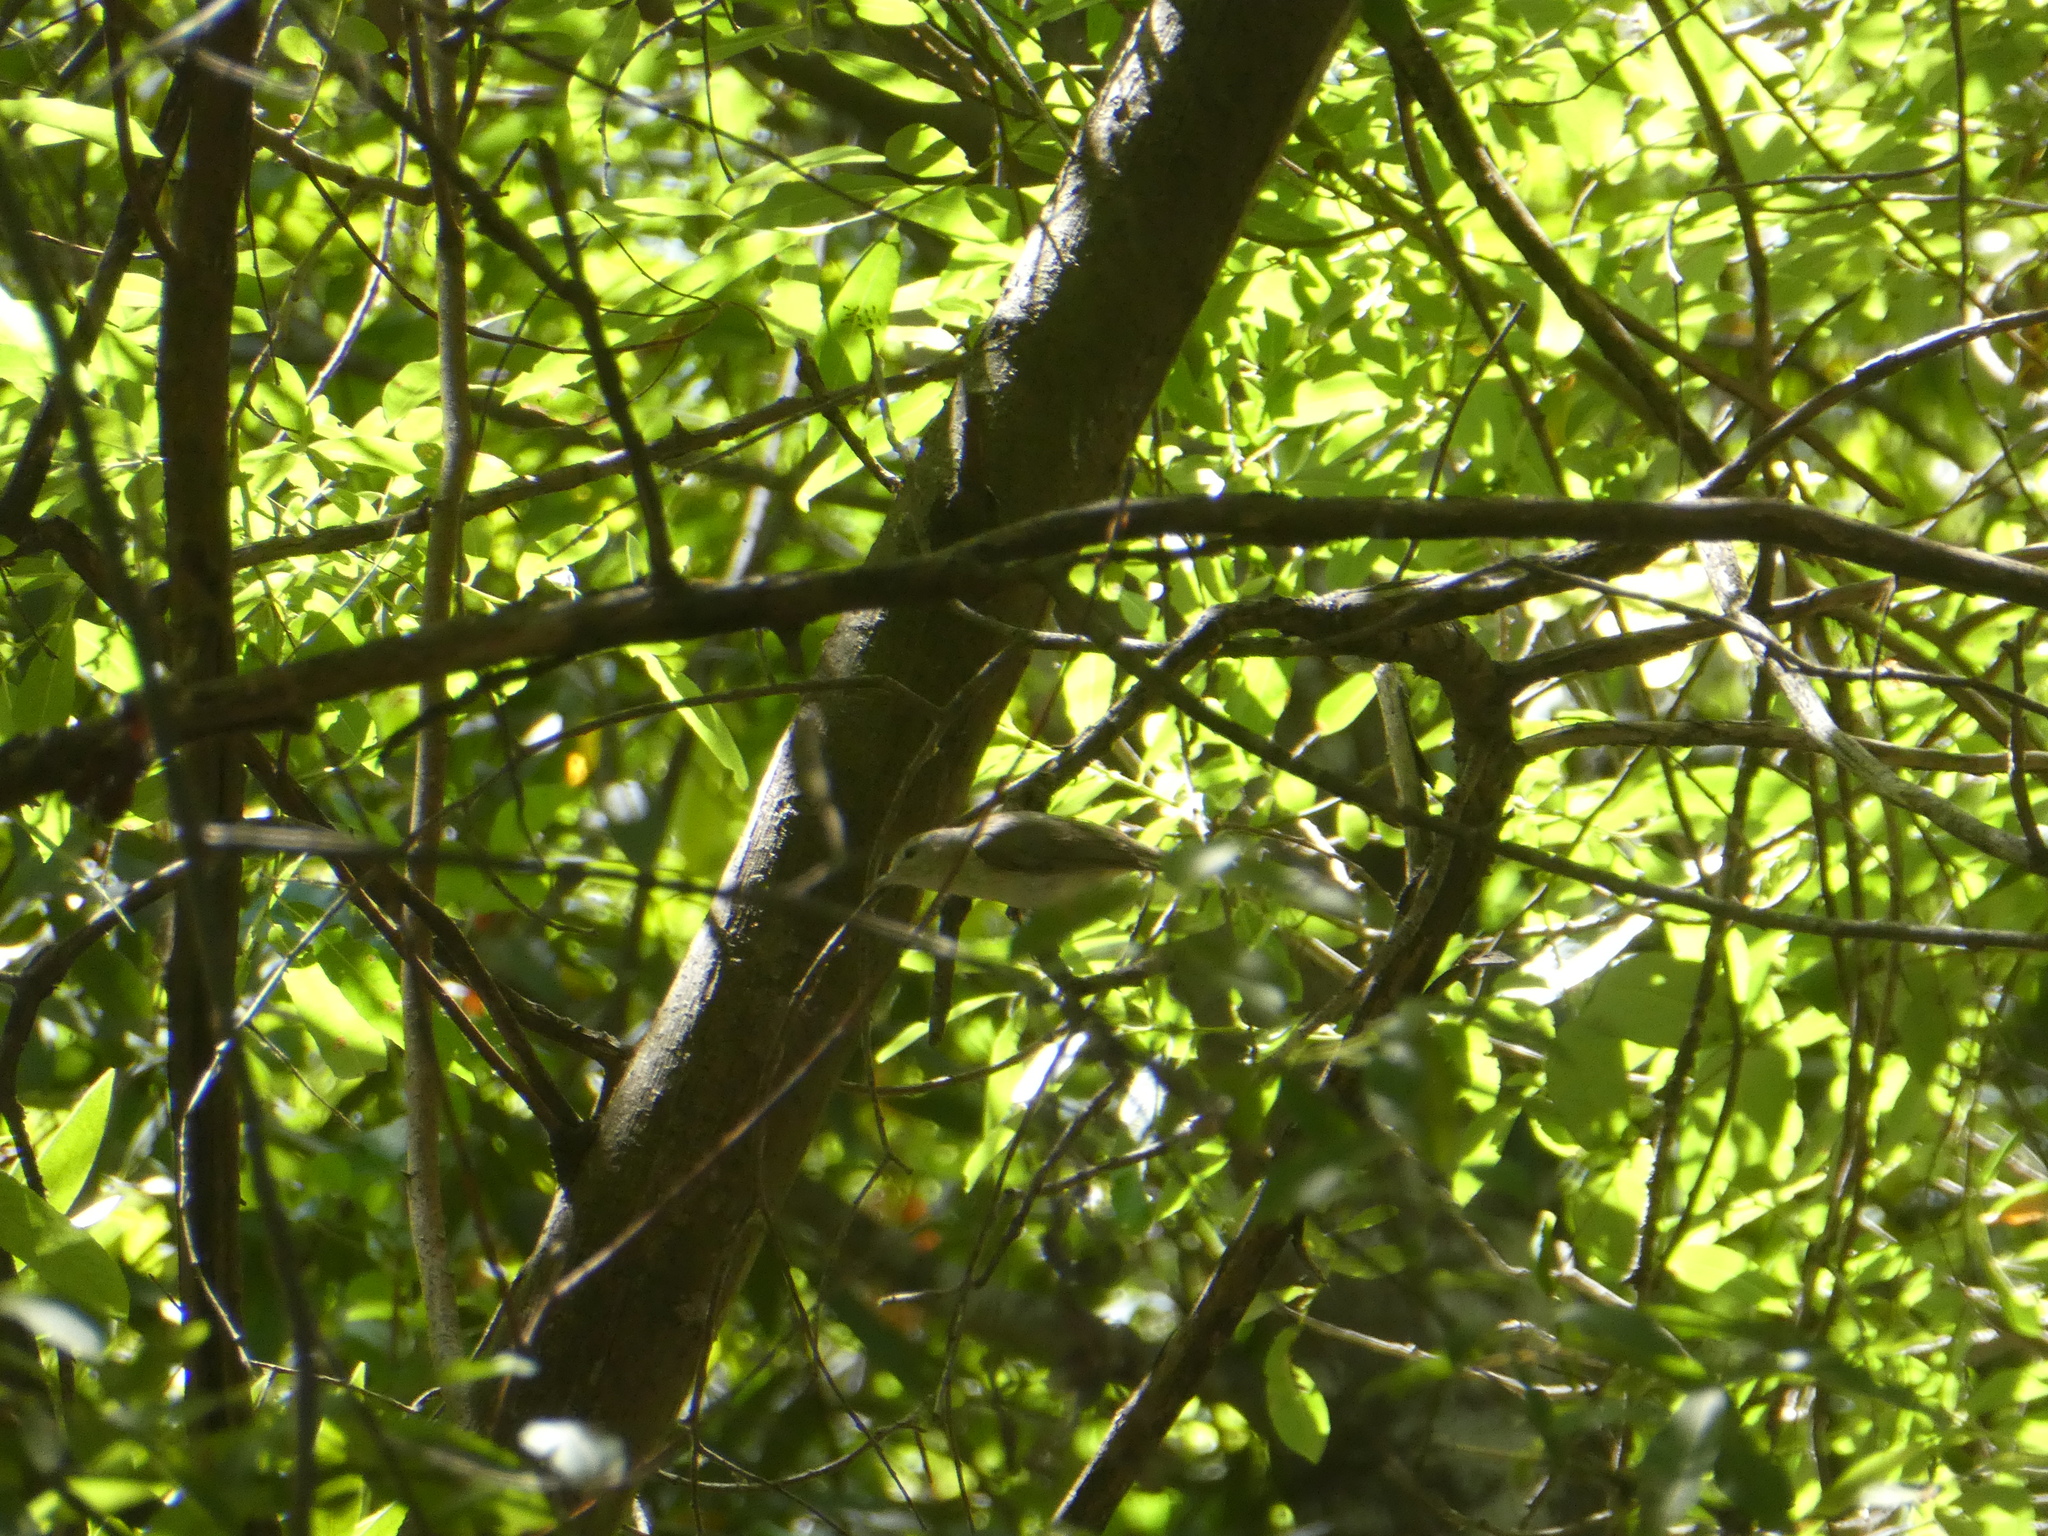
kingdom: Animalia
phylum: Chordata
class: Aves
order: Passeriformes
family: Vireonidae
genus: Vireo
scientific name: Vireo gilvus
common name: Warbling vireo
